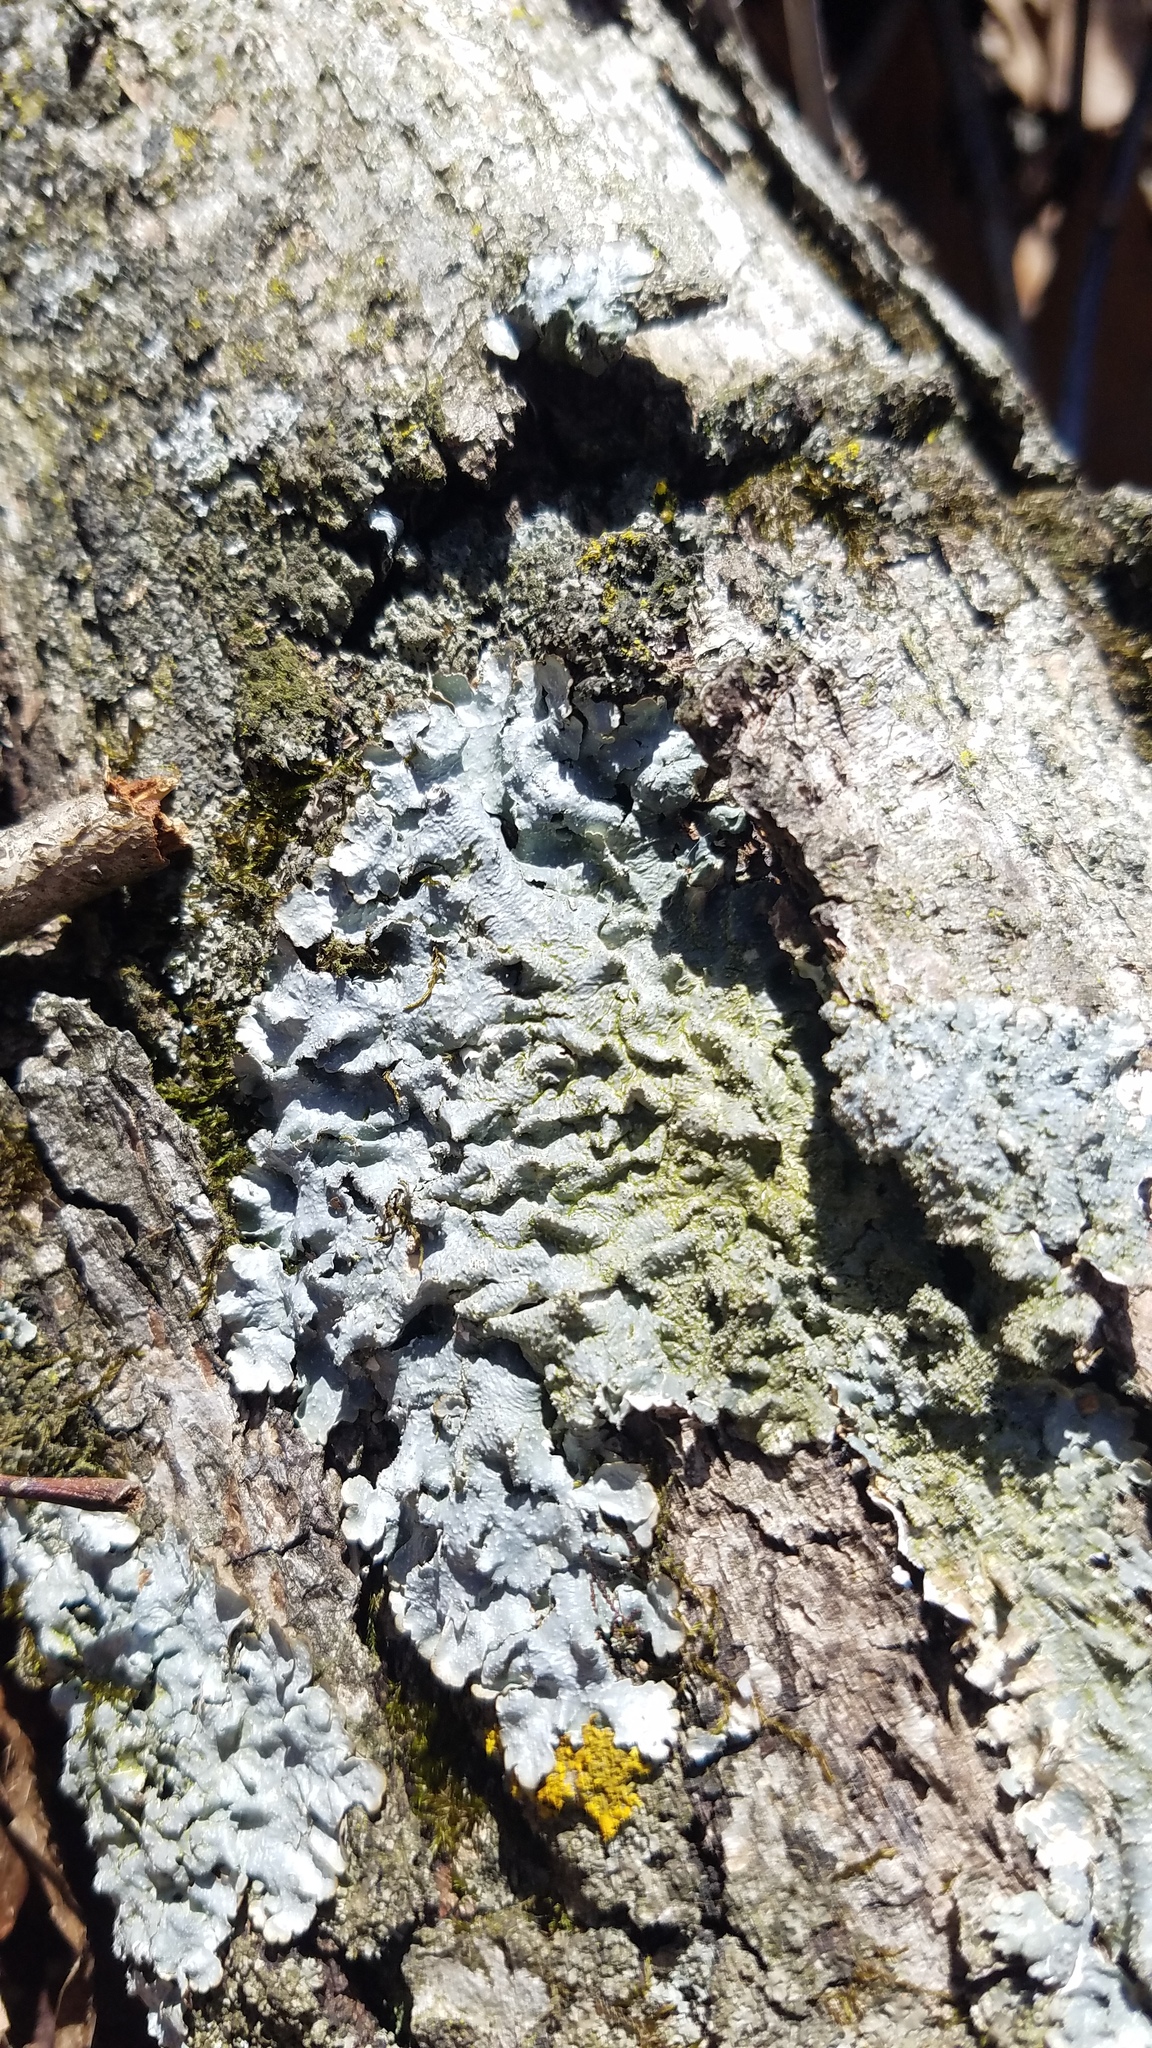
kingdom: Fungi
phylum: Ascomycota
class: Lecanoromycetes
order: Lecanorales
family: Parmeliaceae
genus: Punctelia
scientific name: Punctelia rudecta
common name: Rough speckled shield lichen
